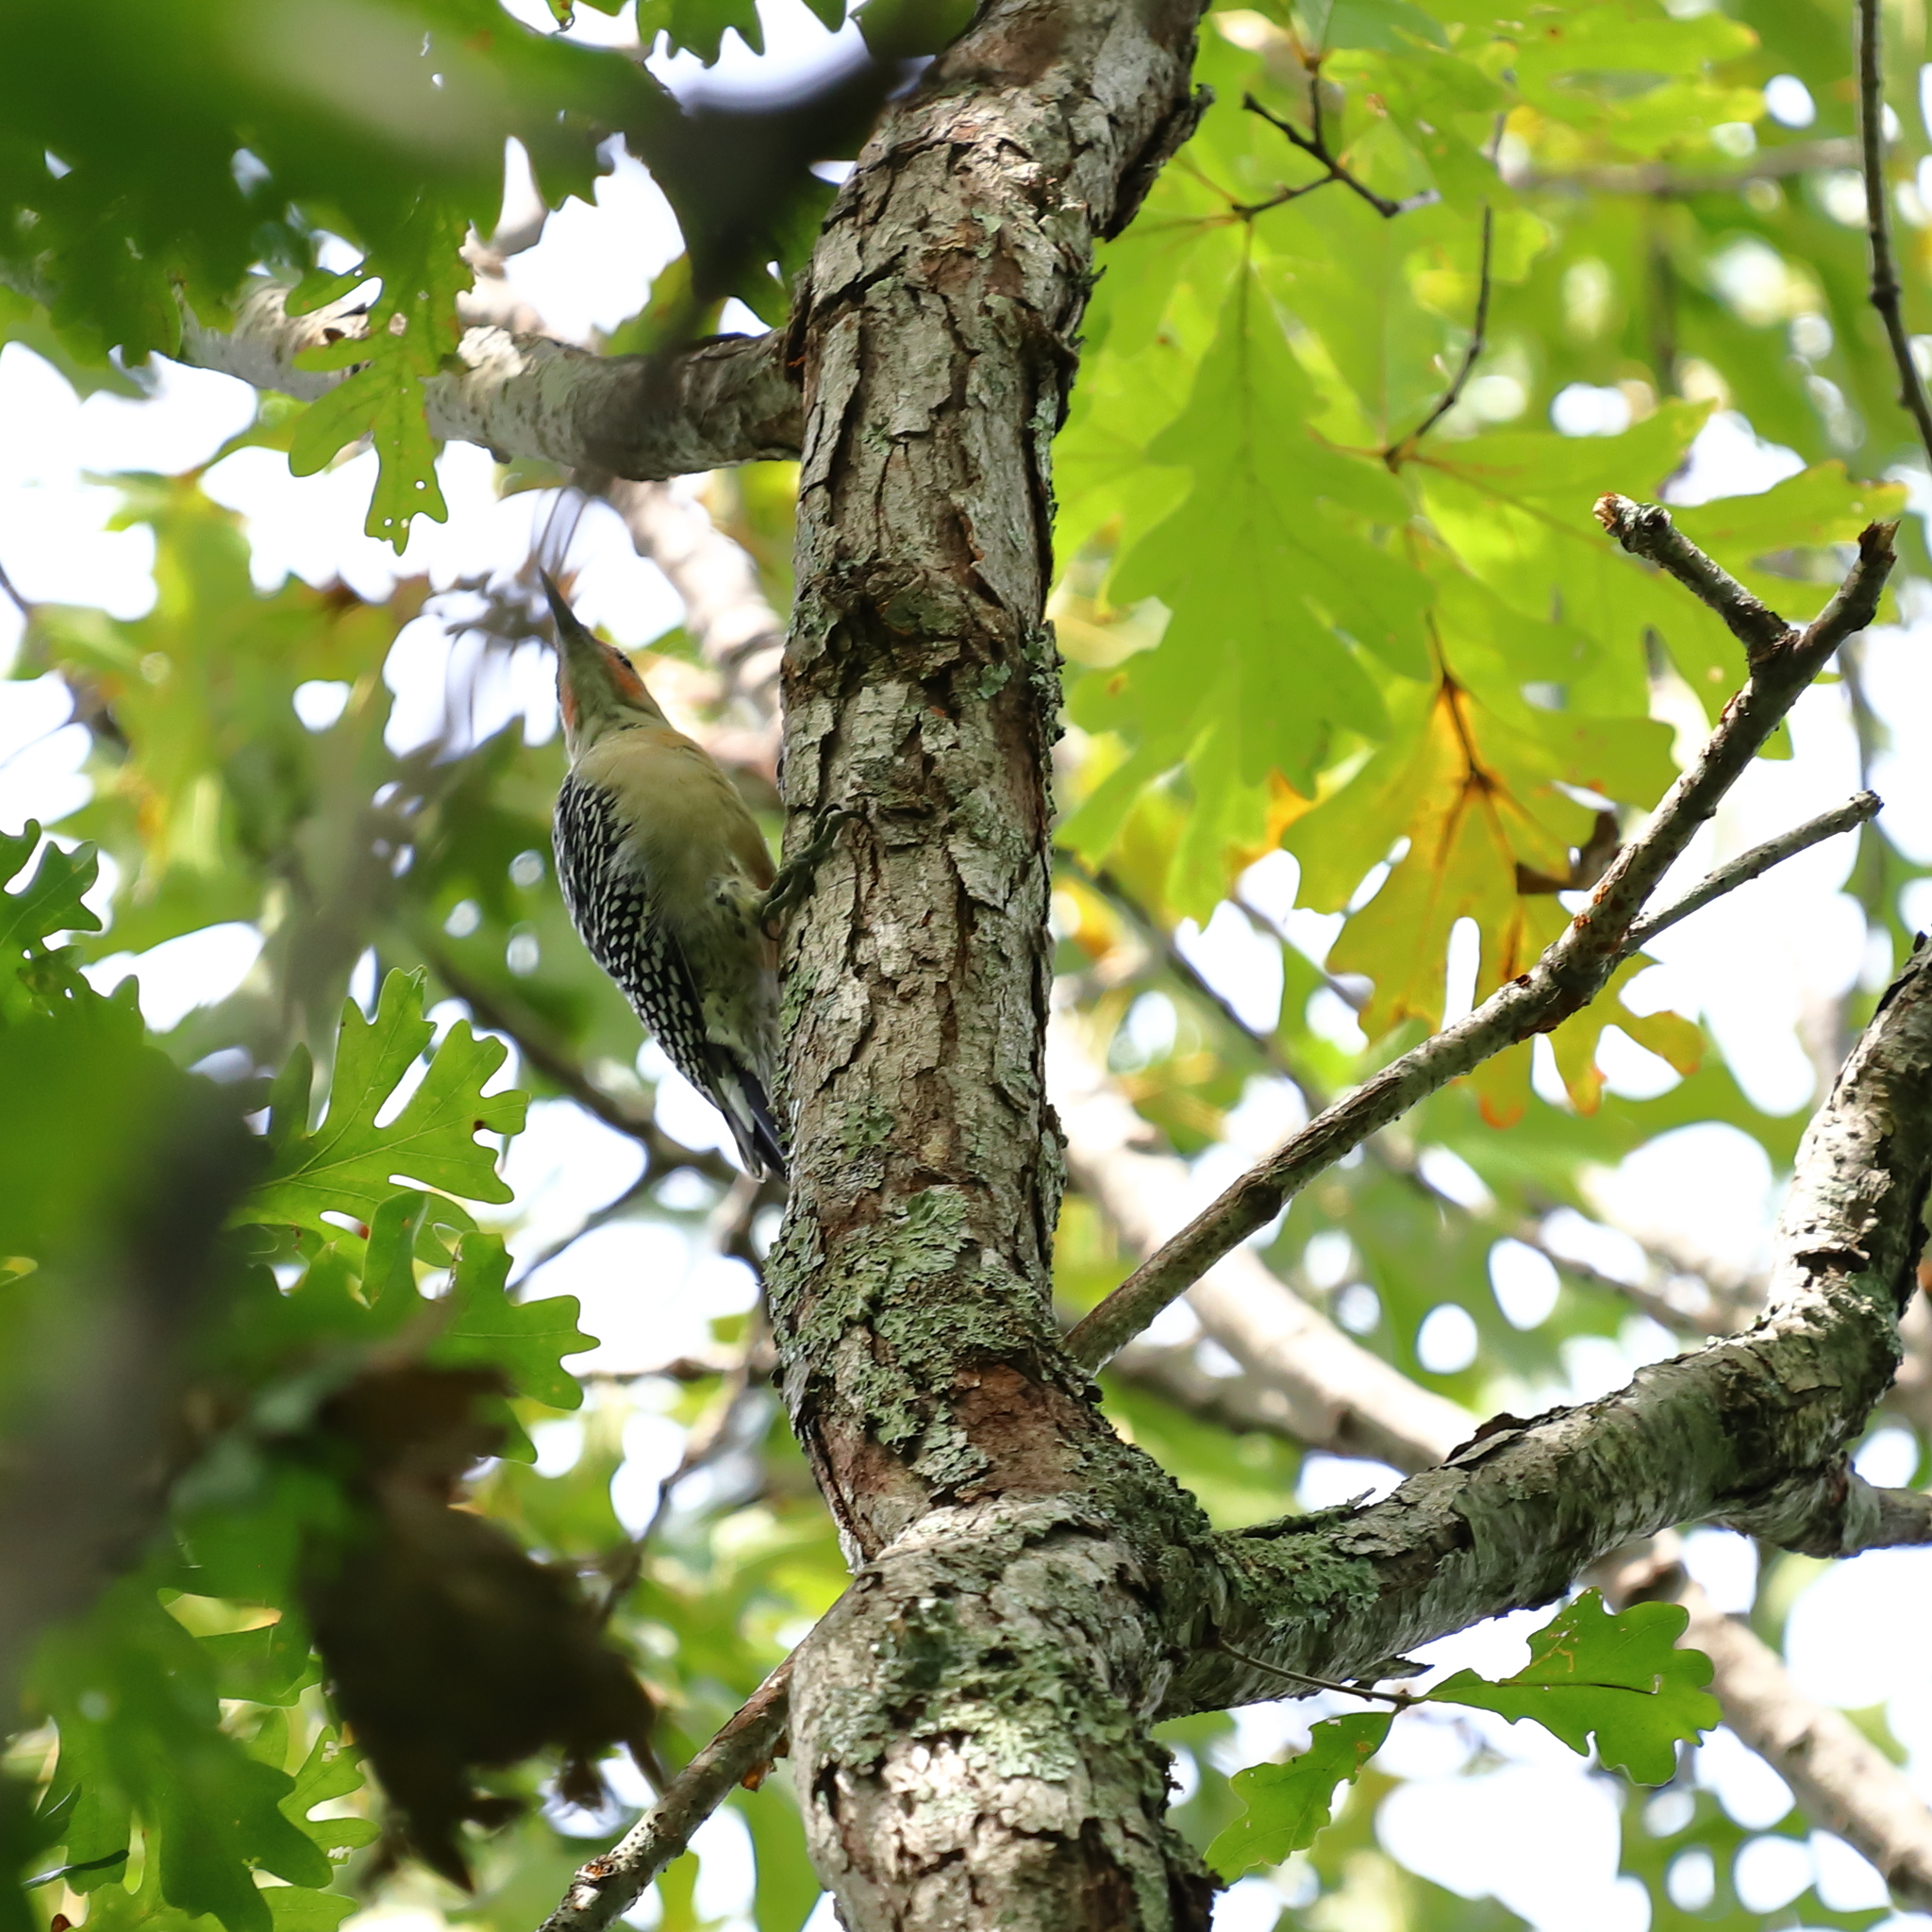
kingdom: Animalia
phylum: Chordata
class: Aves
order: Piciformes
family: Picidae
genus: Melanerpes
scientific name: Melanerpes carolinus
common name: Red-bellied woodpecker
